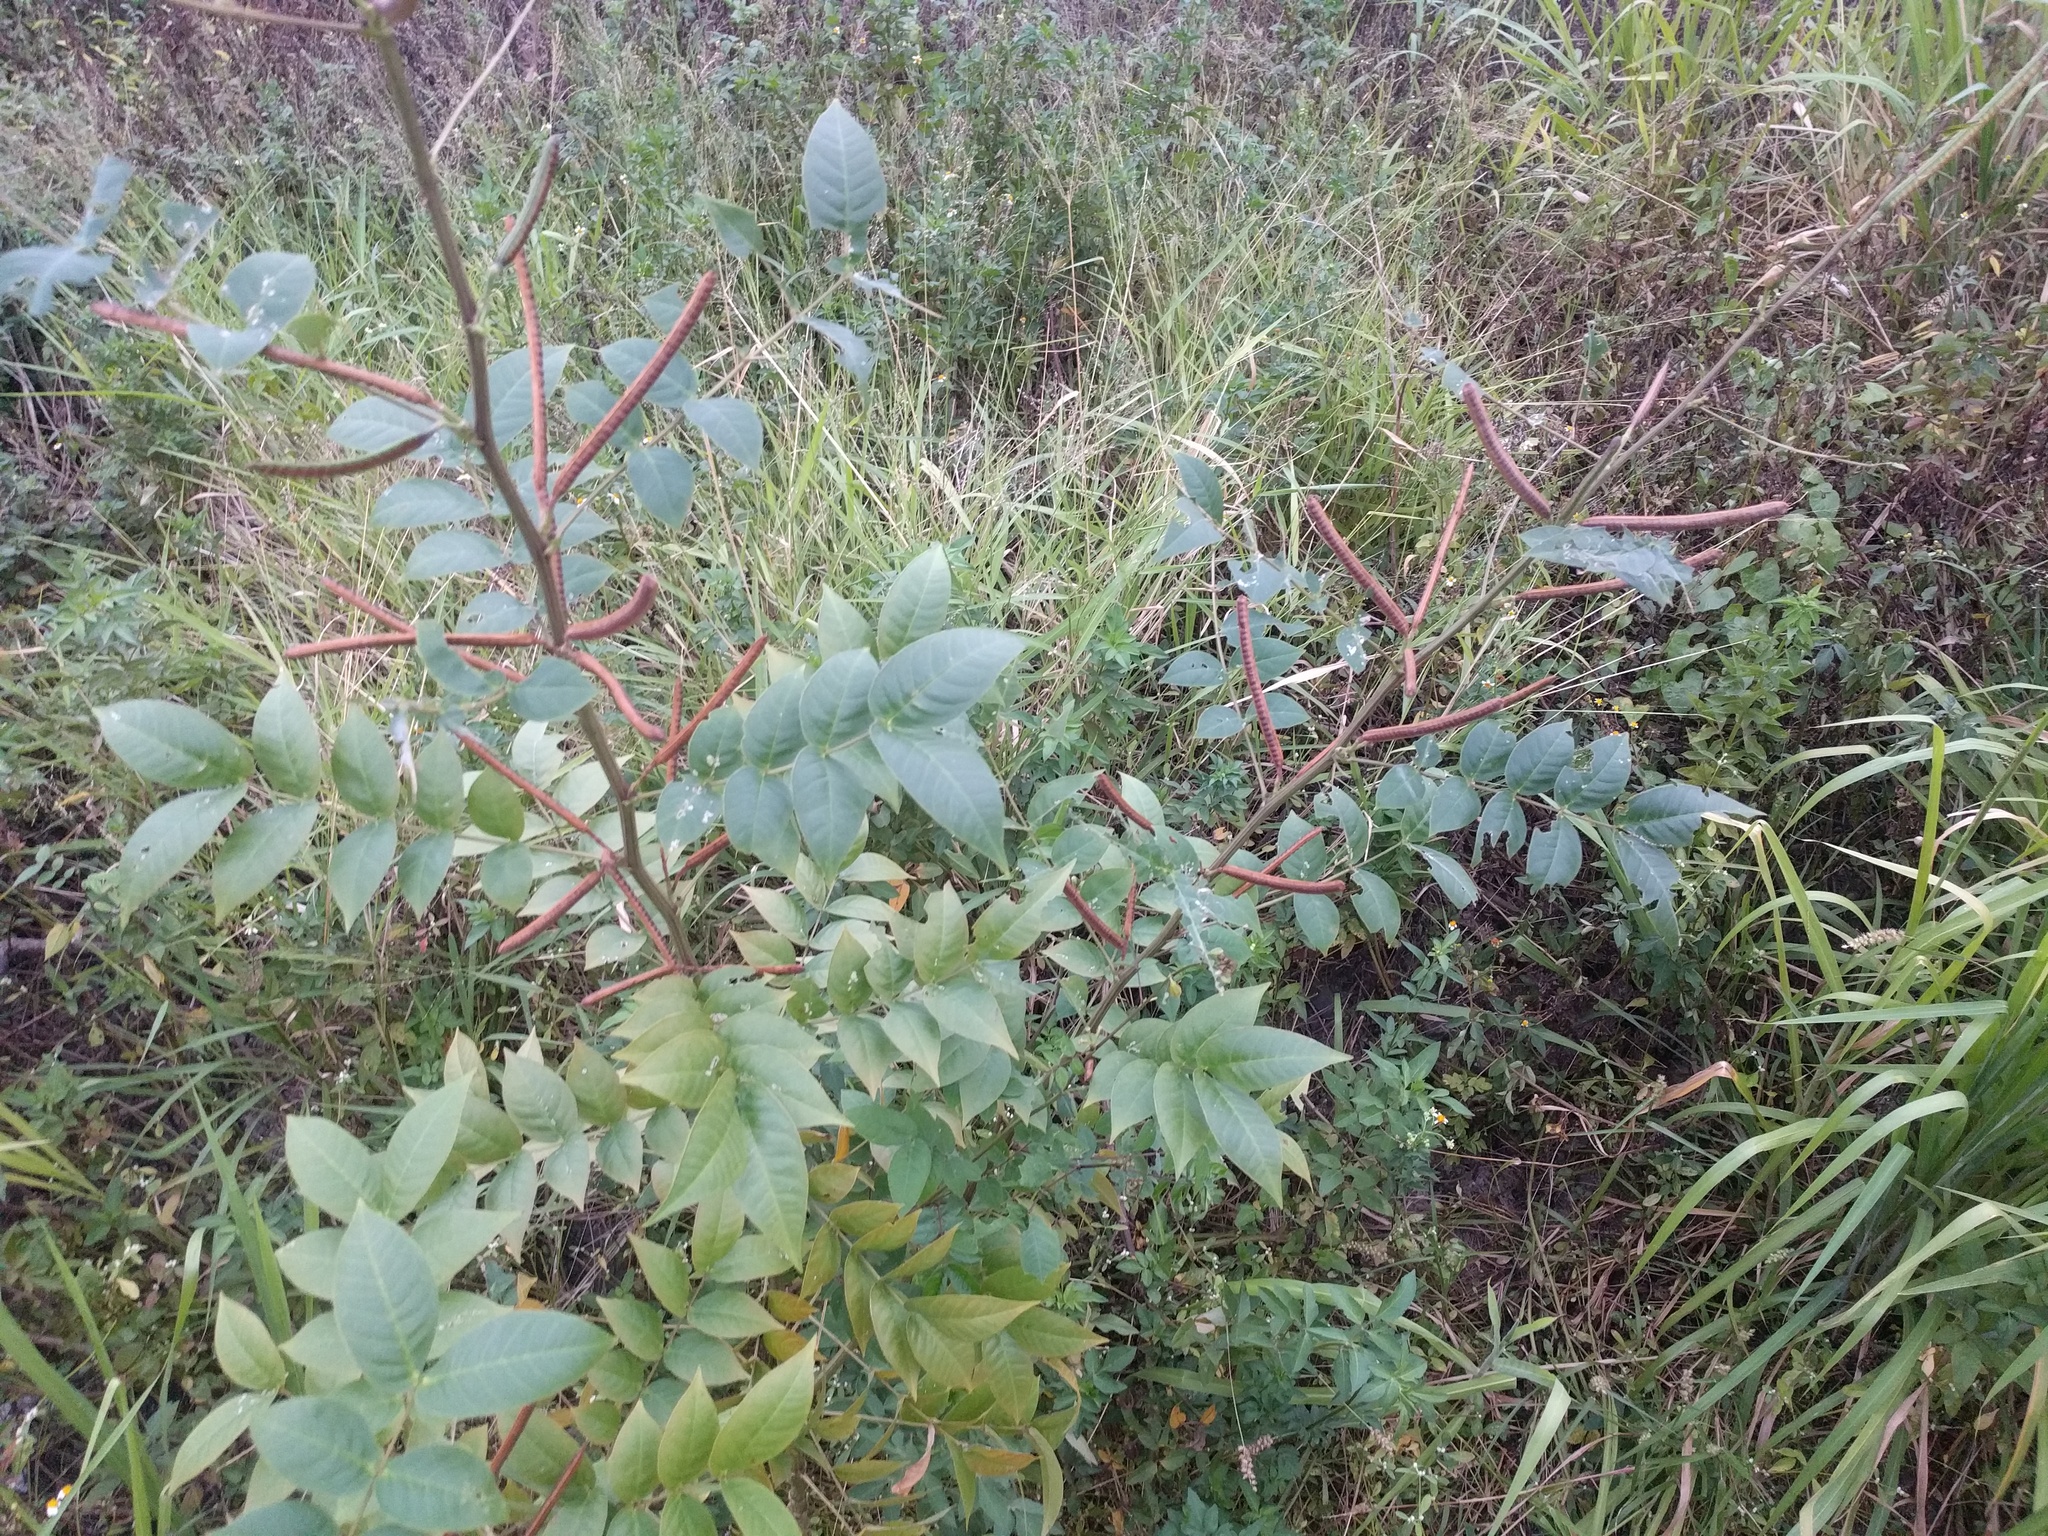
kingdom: Plantae
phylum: Tracheophyta
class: Magnoliopsida
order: Fabales
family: Fabaceae
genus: Senna
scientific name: Senna occidentalis
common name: Septicweed
